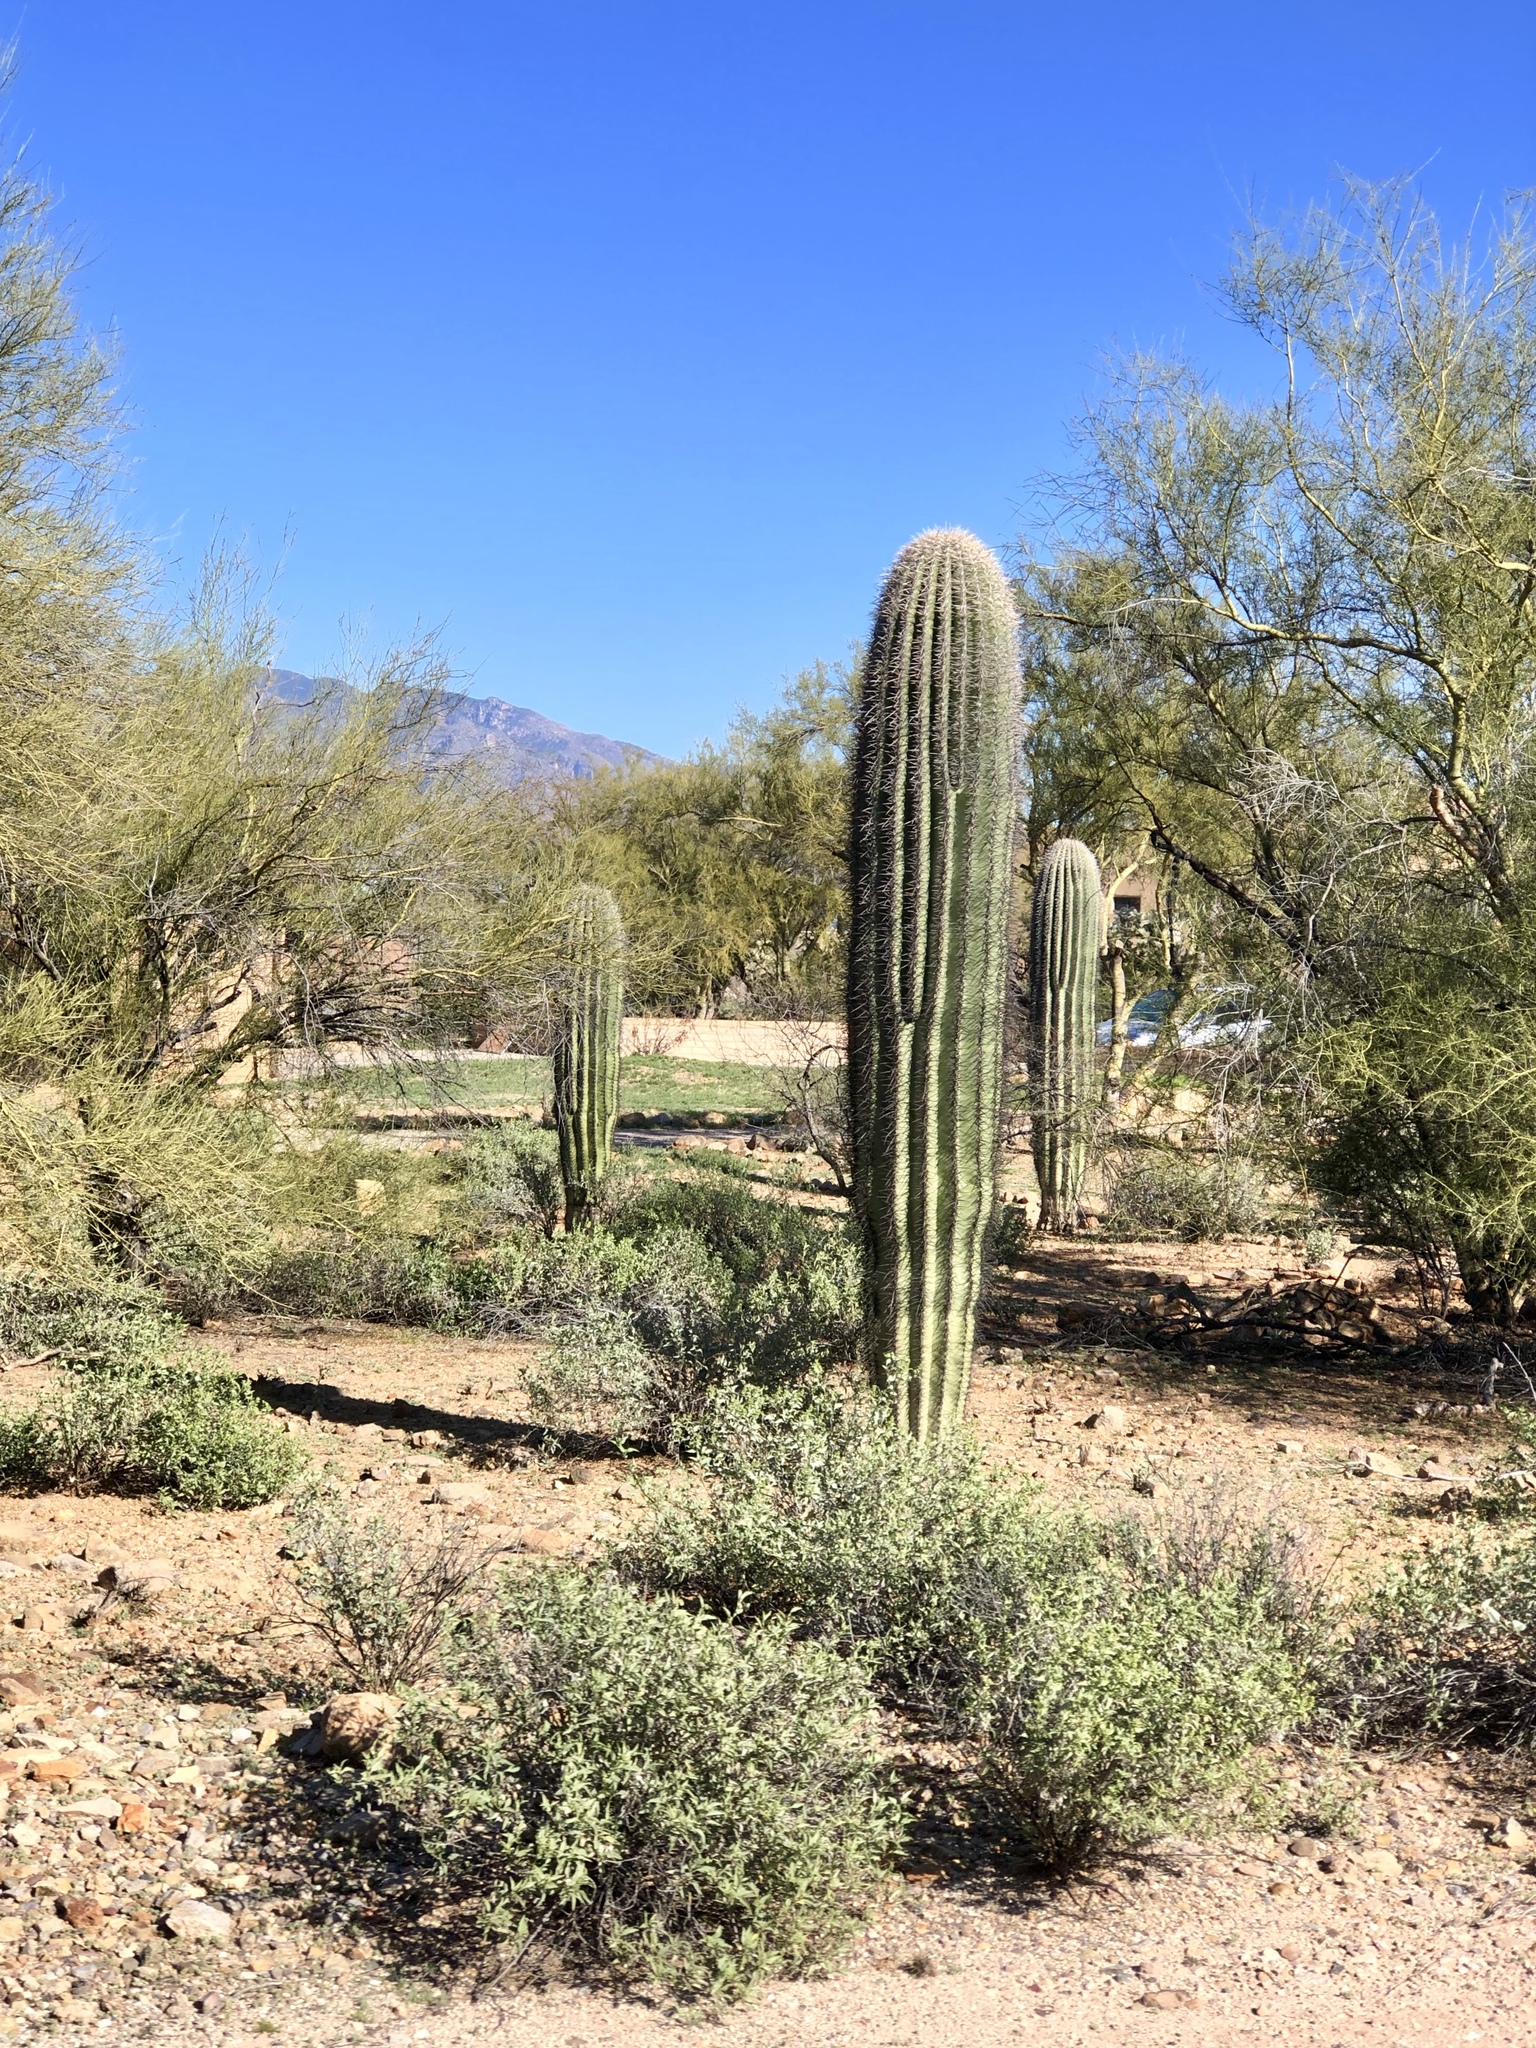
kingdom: Plantae
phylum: Tracheophyta
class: Magnoliopsida
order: Caryophyllales
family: Cactaceae
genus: Carnegiea
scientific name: Carnegiea gigantea
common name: Saguaro
